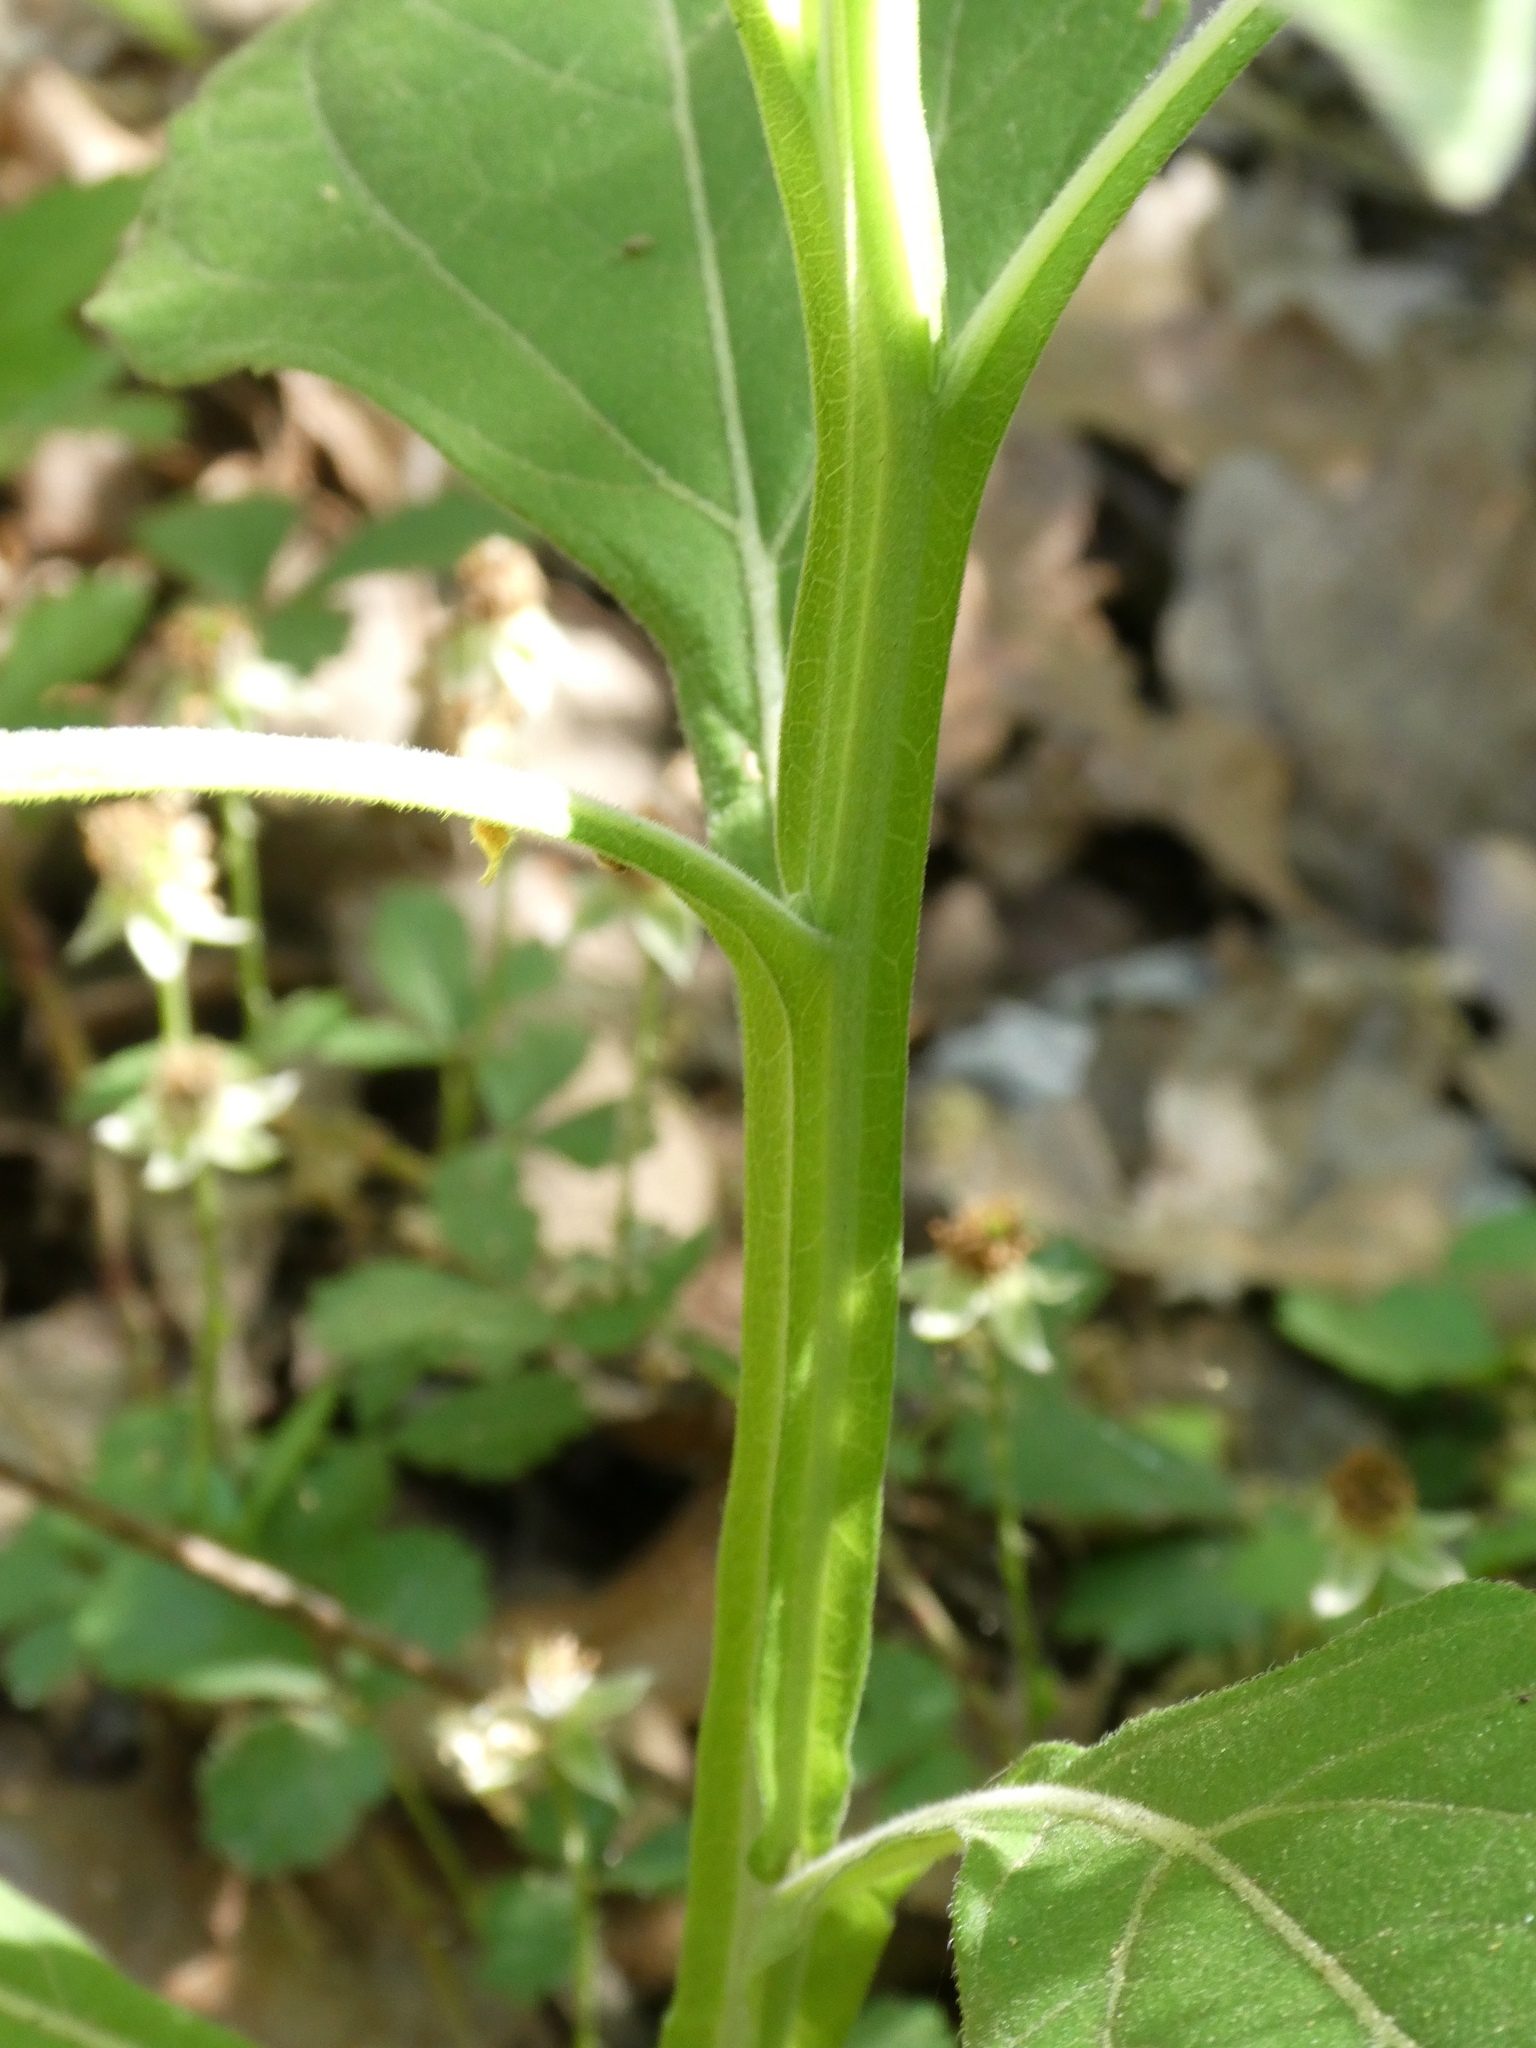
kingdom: Plantae
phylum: Tracheophyta
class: Magnoliopsida
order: Asterales
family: Asteraceae
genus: Verbesina
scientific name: Verbesina virginica
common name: Frostweed
